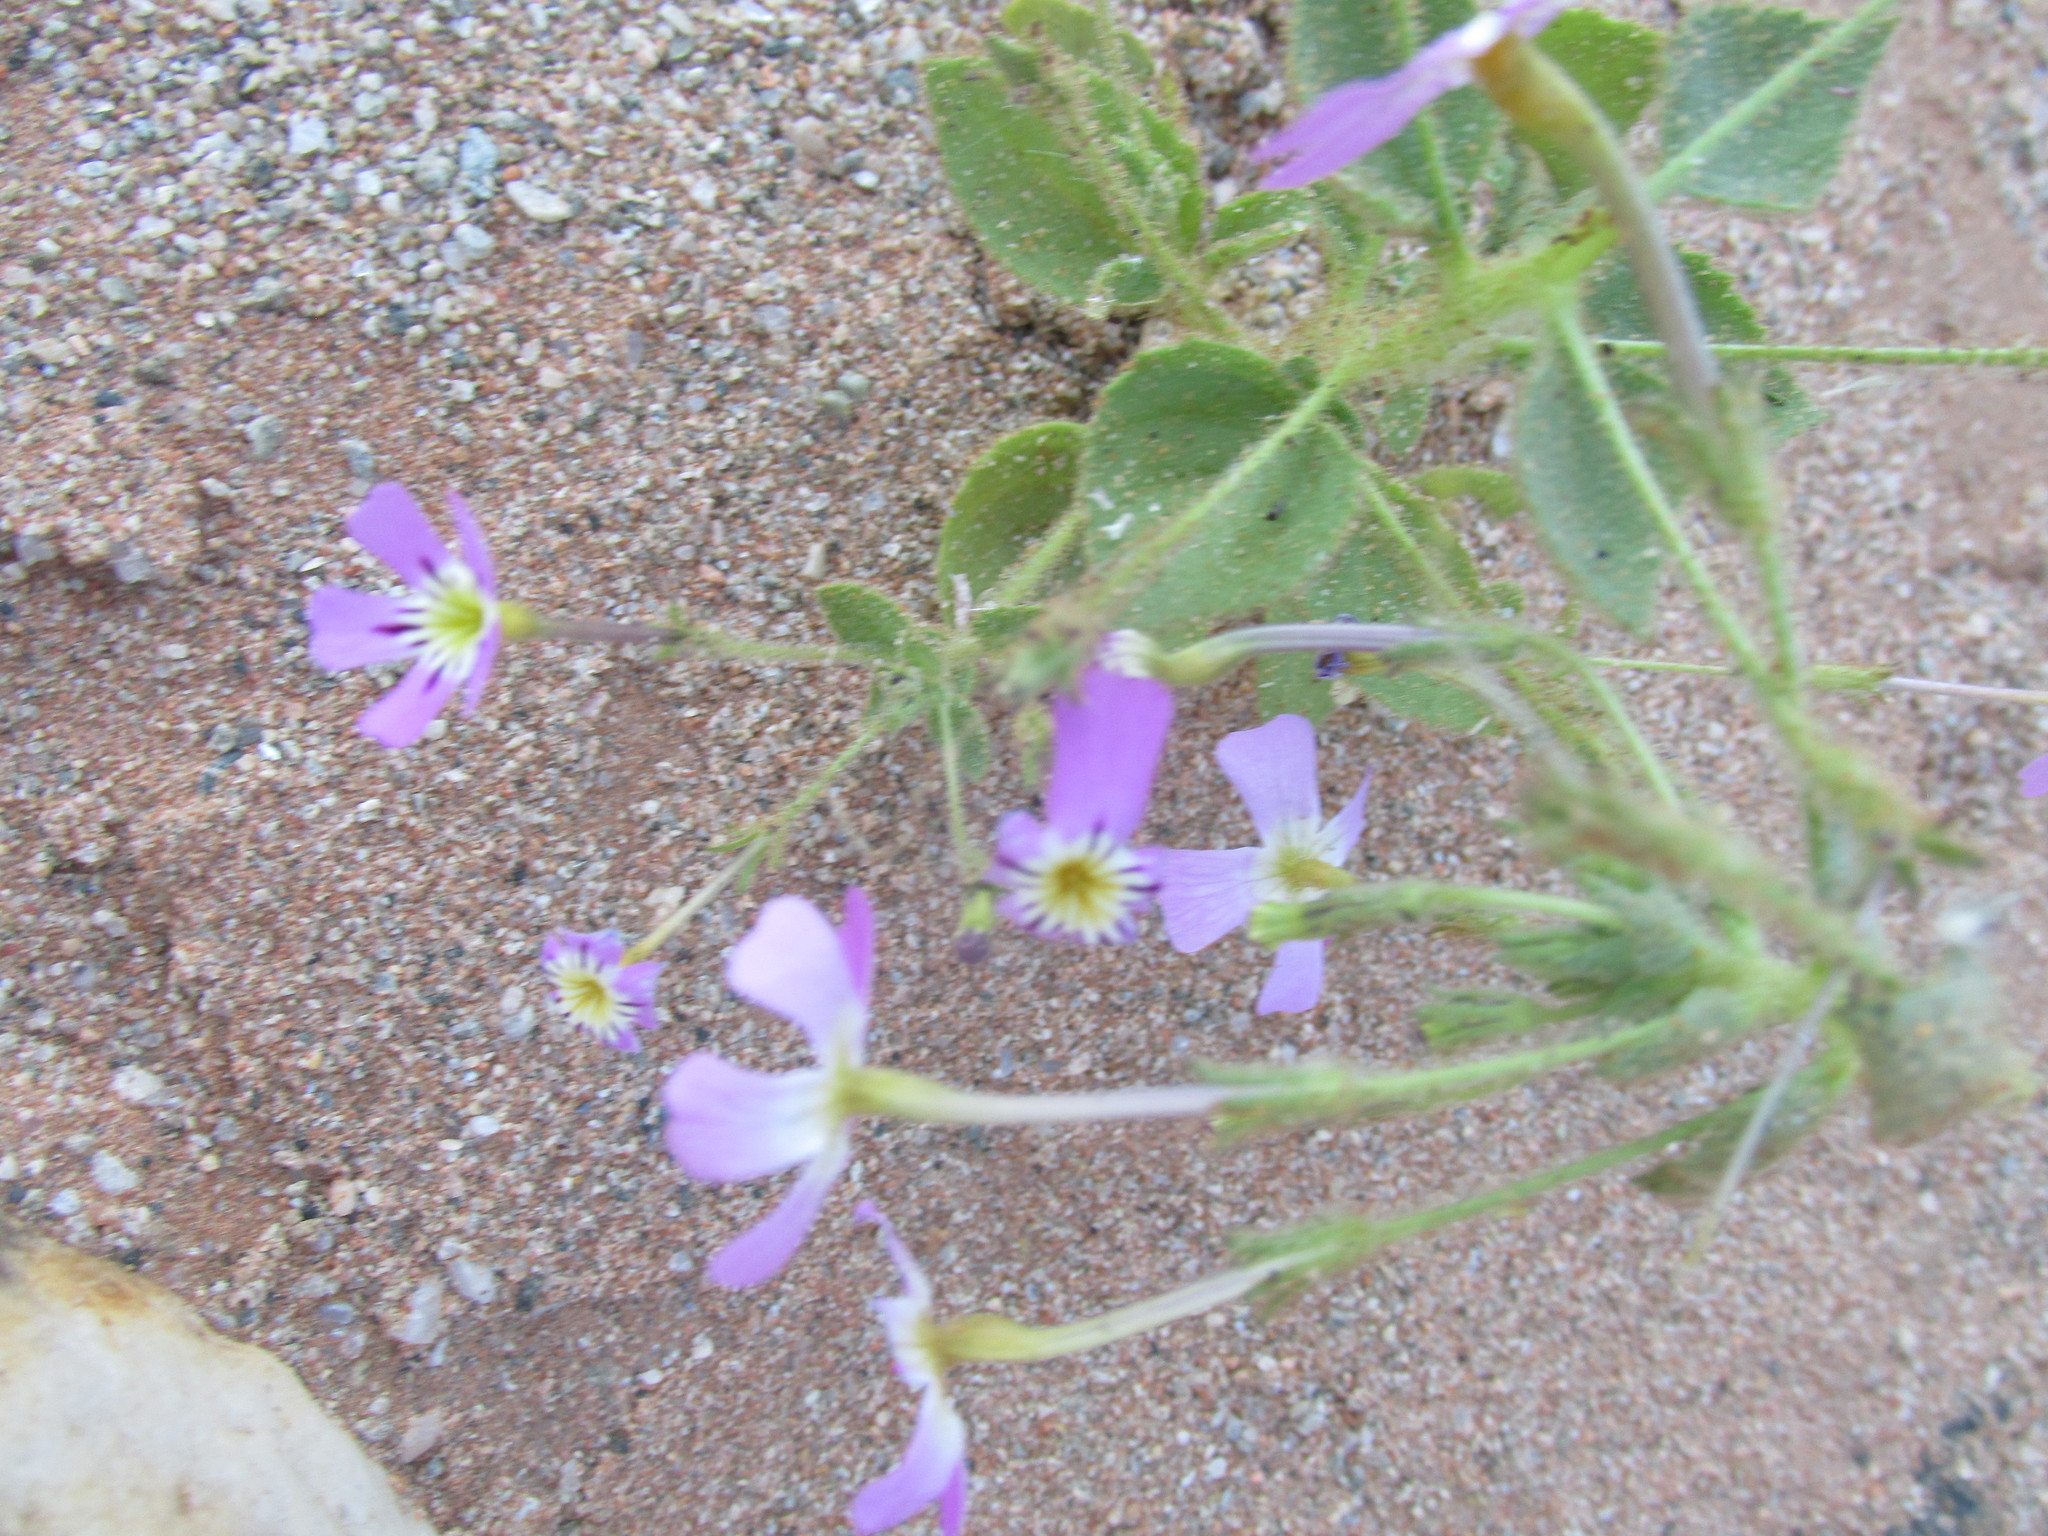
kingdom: Plantae
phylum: Tracheophyta
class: Magnoliopsida
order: Lamiales
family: Scrophulariaceae
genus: Jamesbrittenia
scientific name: Jamesbrittenia glutinosa
